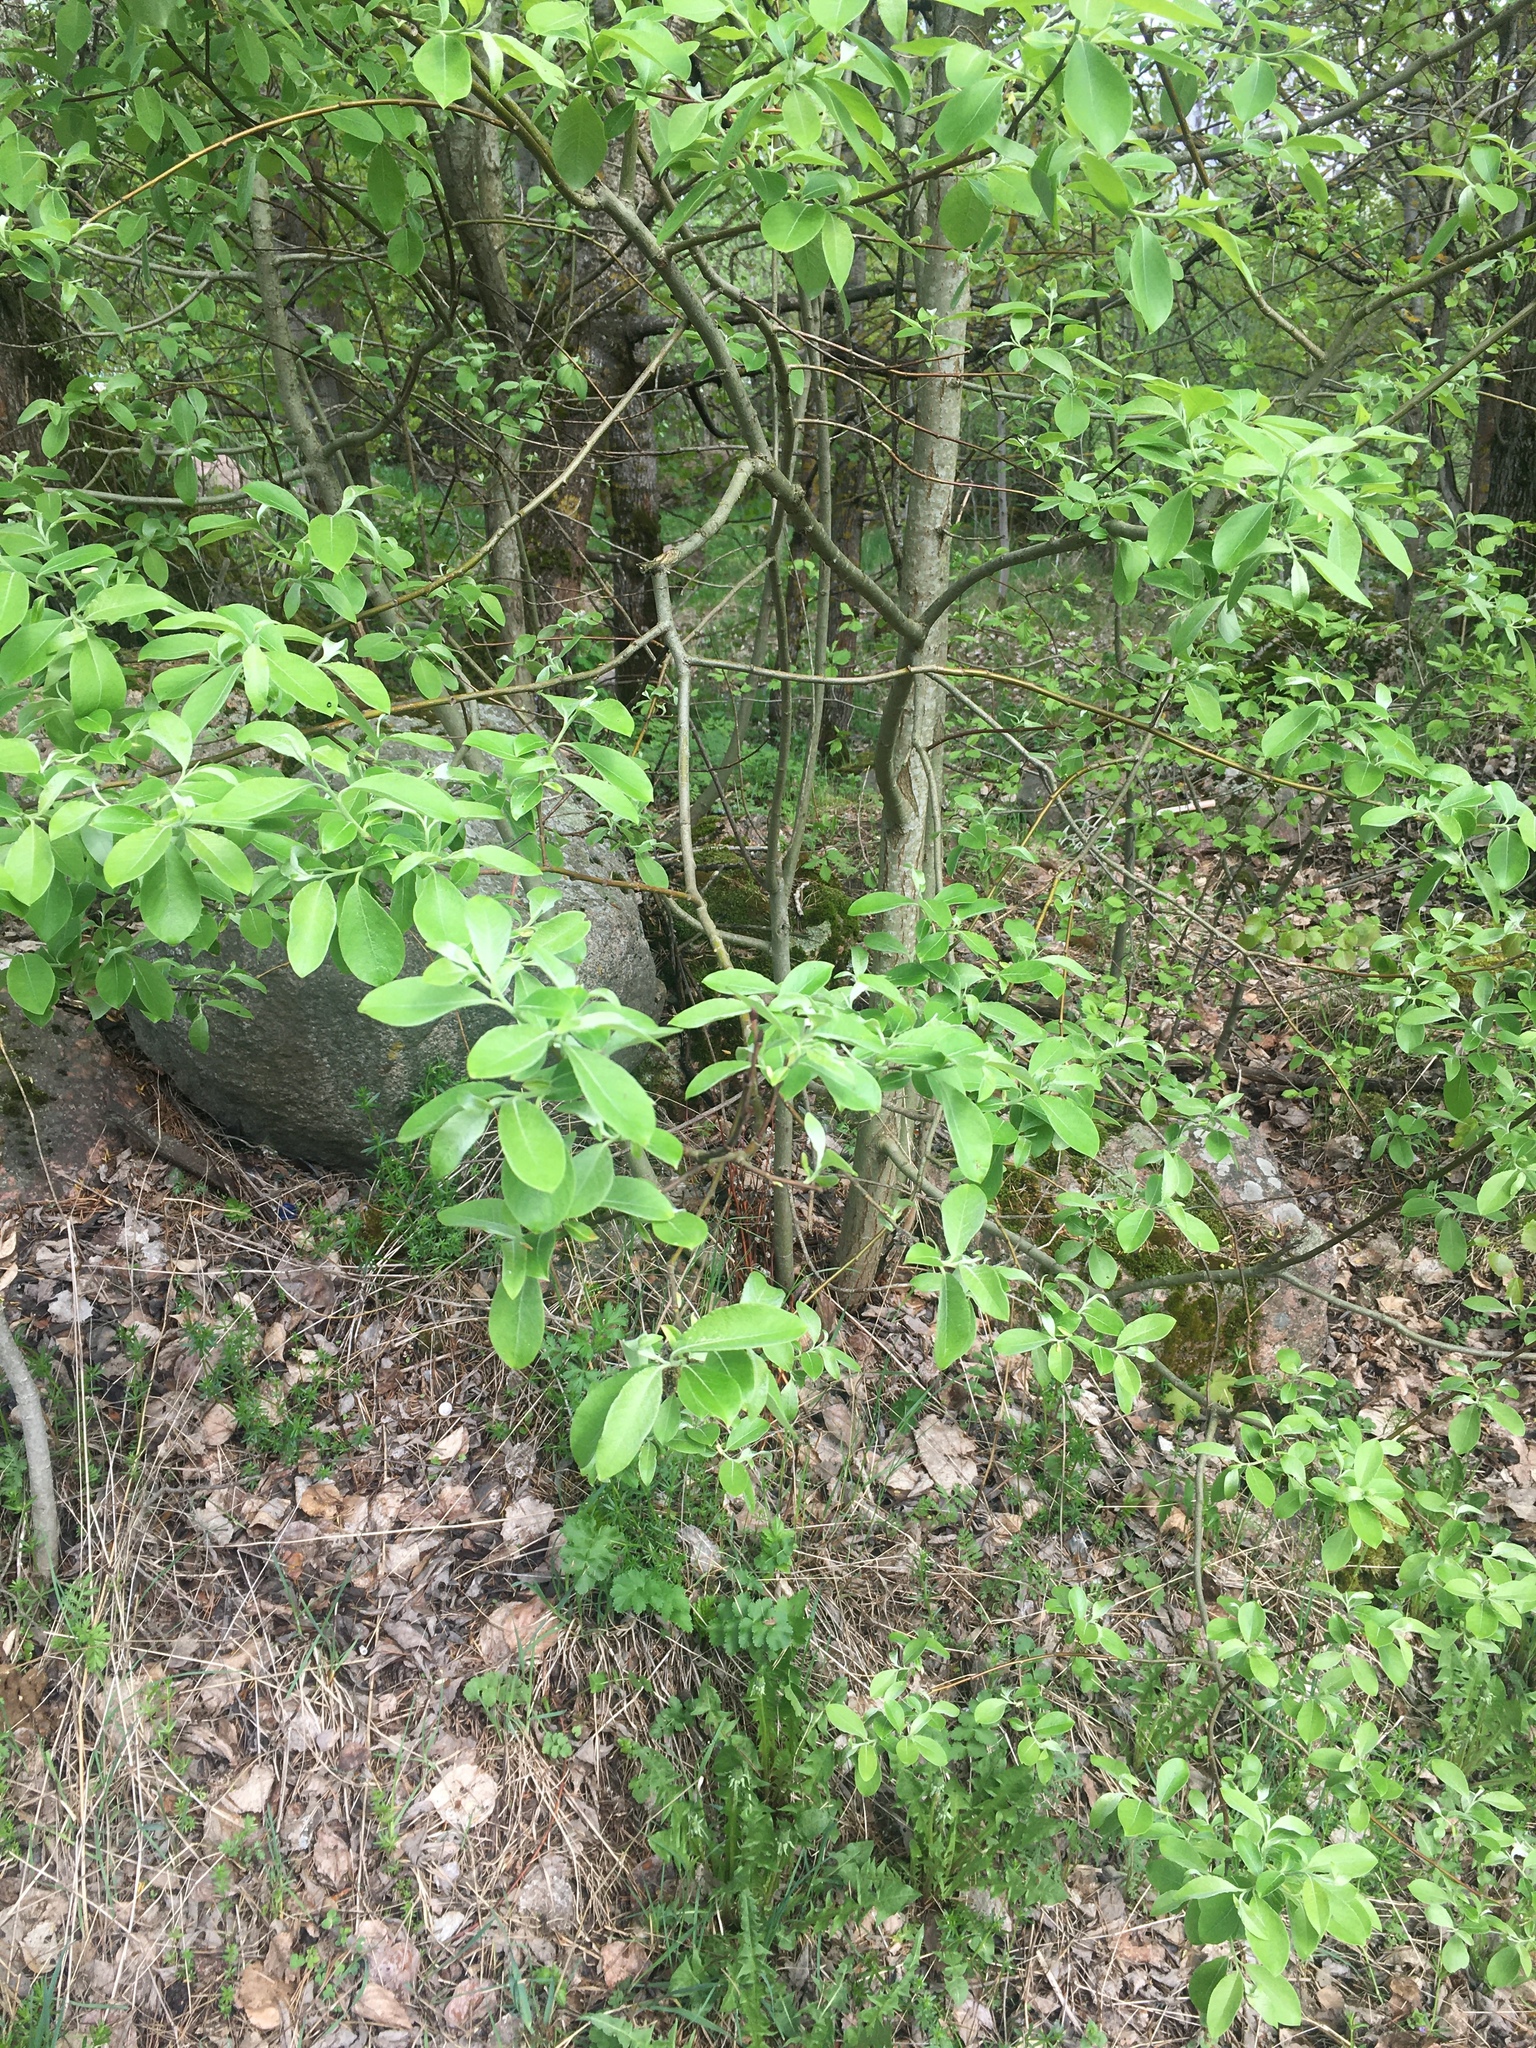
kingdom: Plantae
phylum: Tracheophyta
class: Magnoliopsida
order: Malpighiales
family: Salicaceae
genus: Salix
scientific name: Salix caprea
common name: Goat willow
